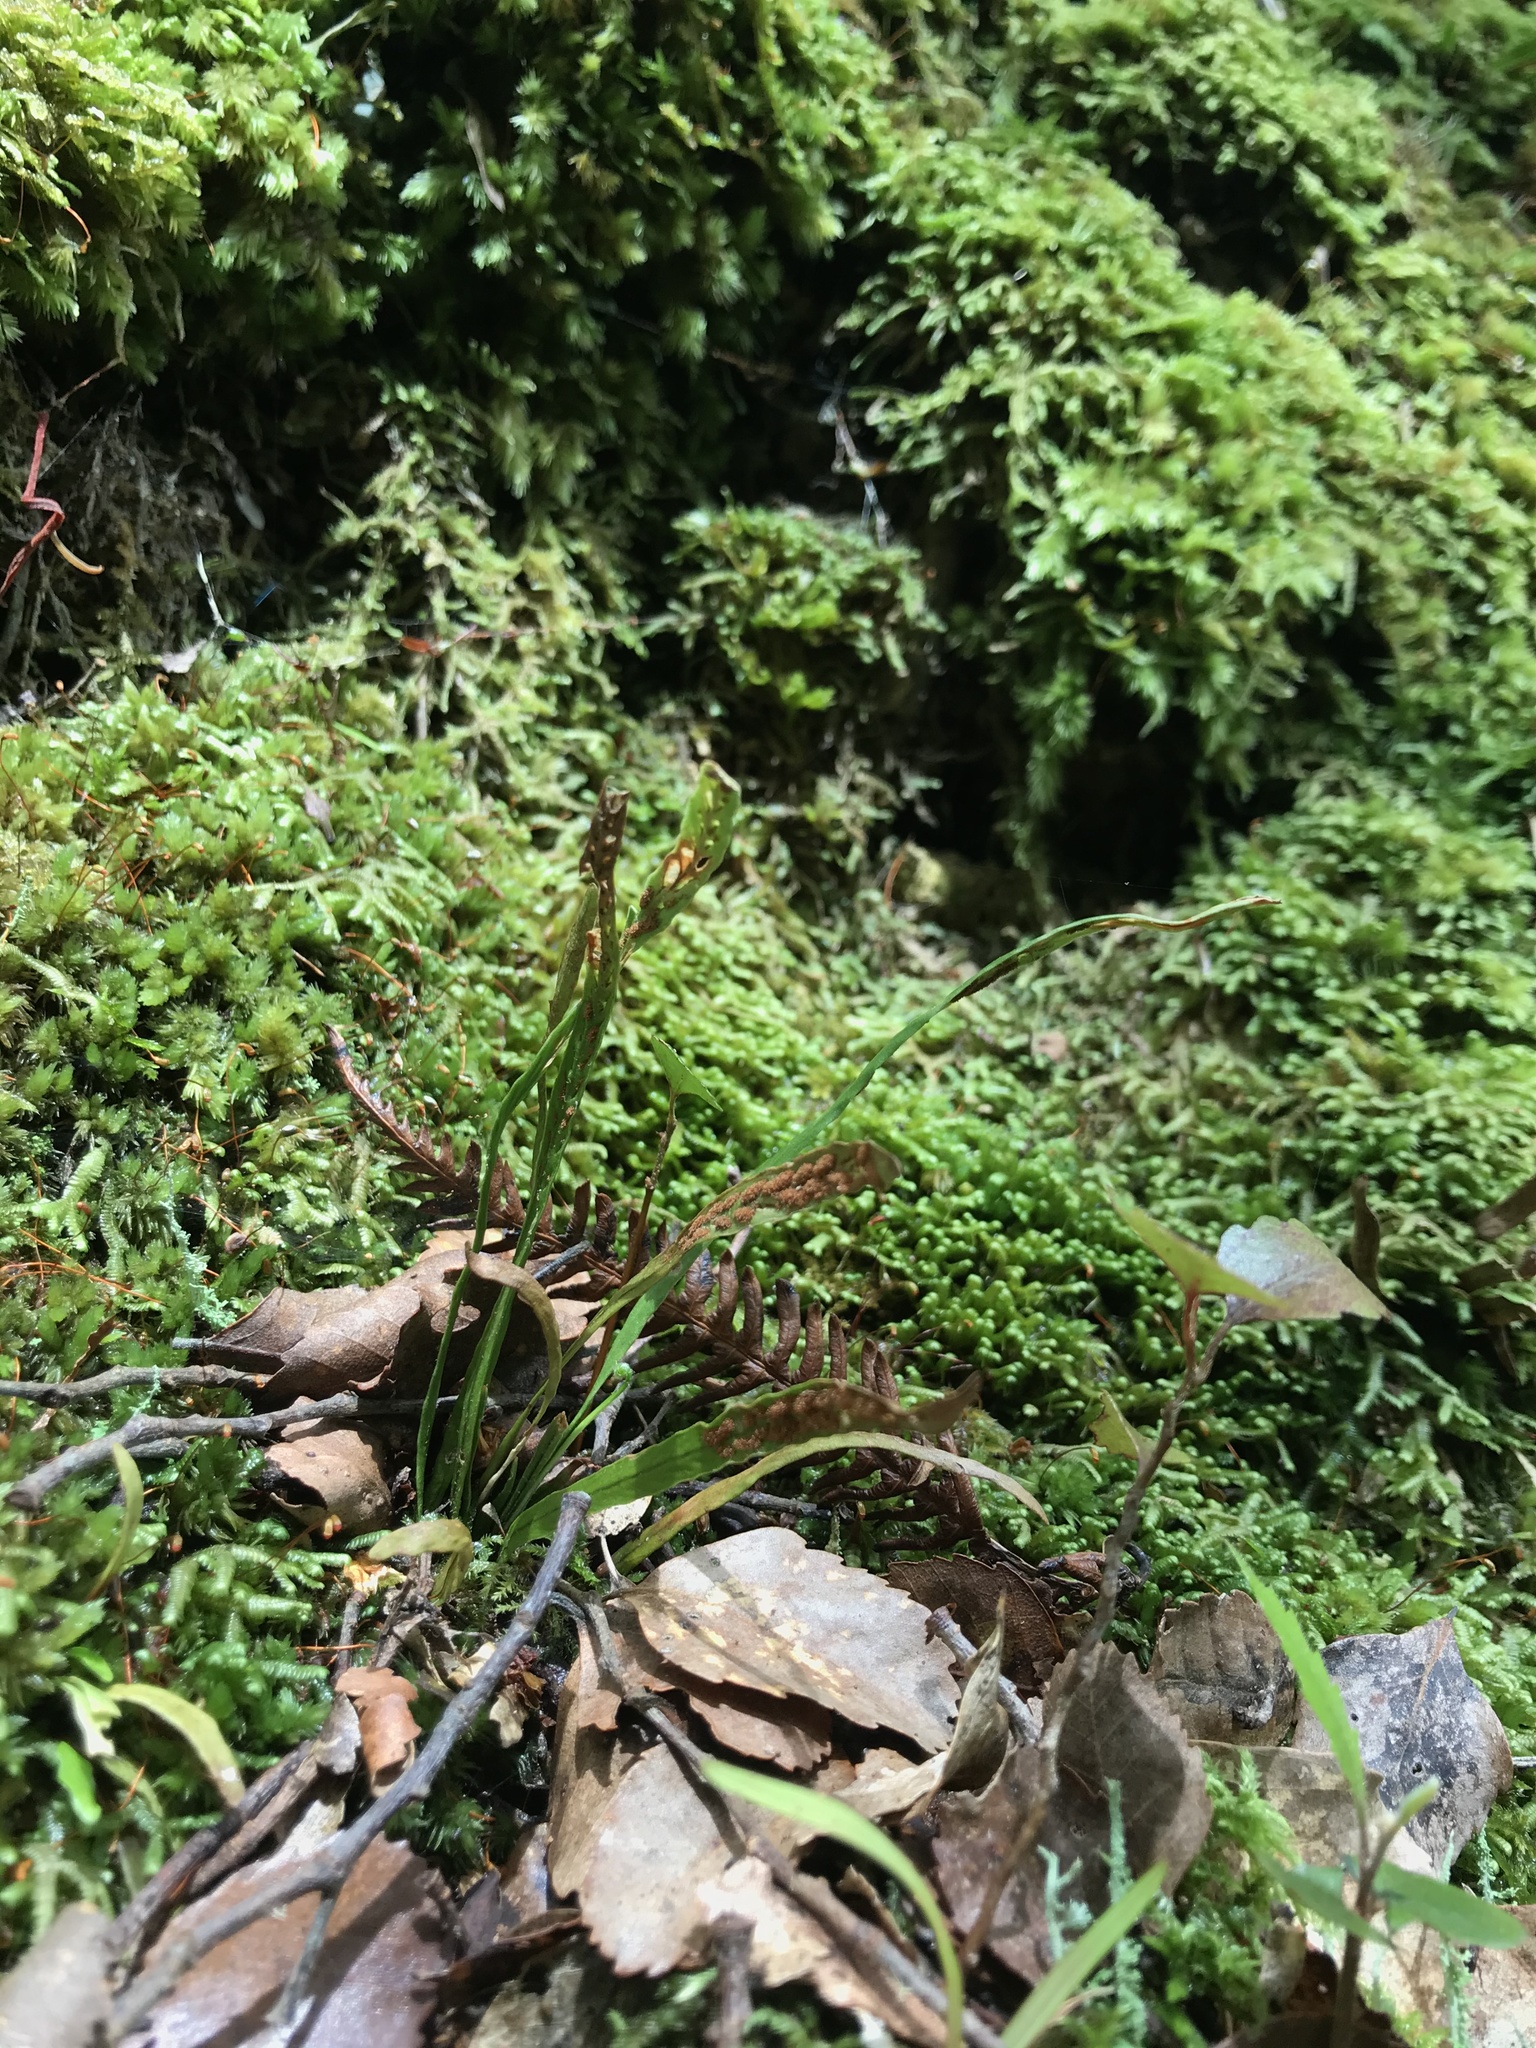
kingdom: Plantae
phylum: Tracheophyta
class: Polypodiopsida
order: Polypodiales
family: Polypodiaceae
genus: Notogrammitis
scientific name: Notogrammitis billardierei
